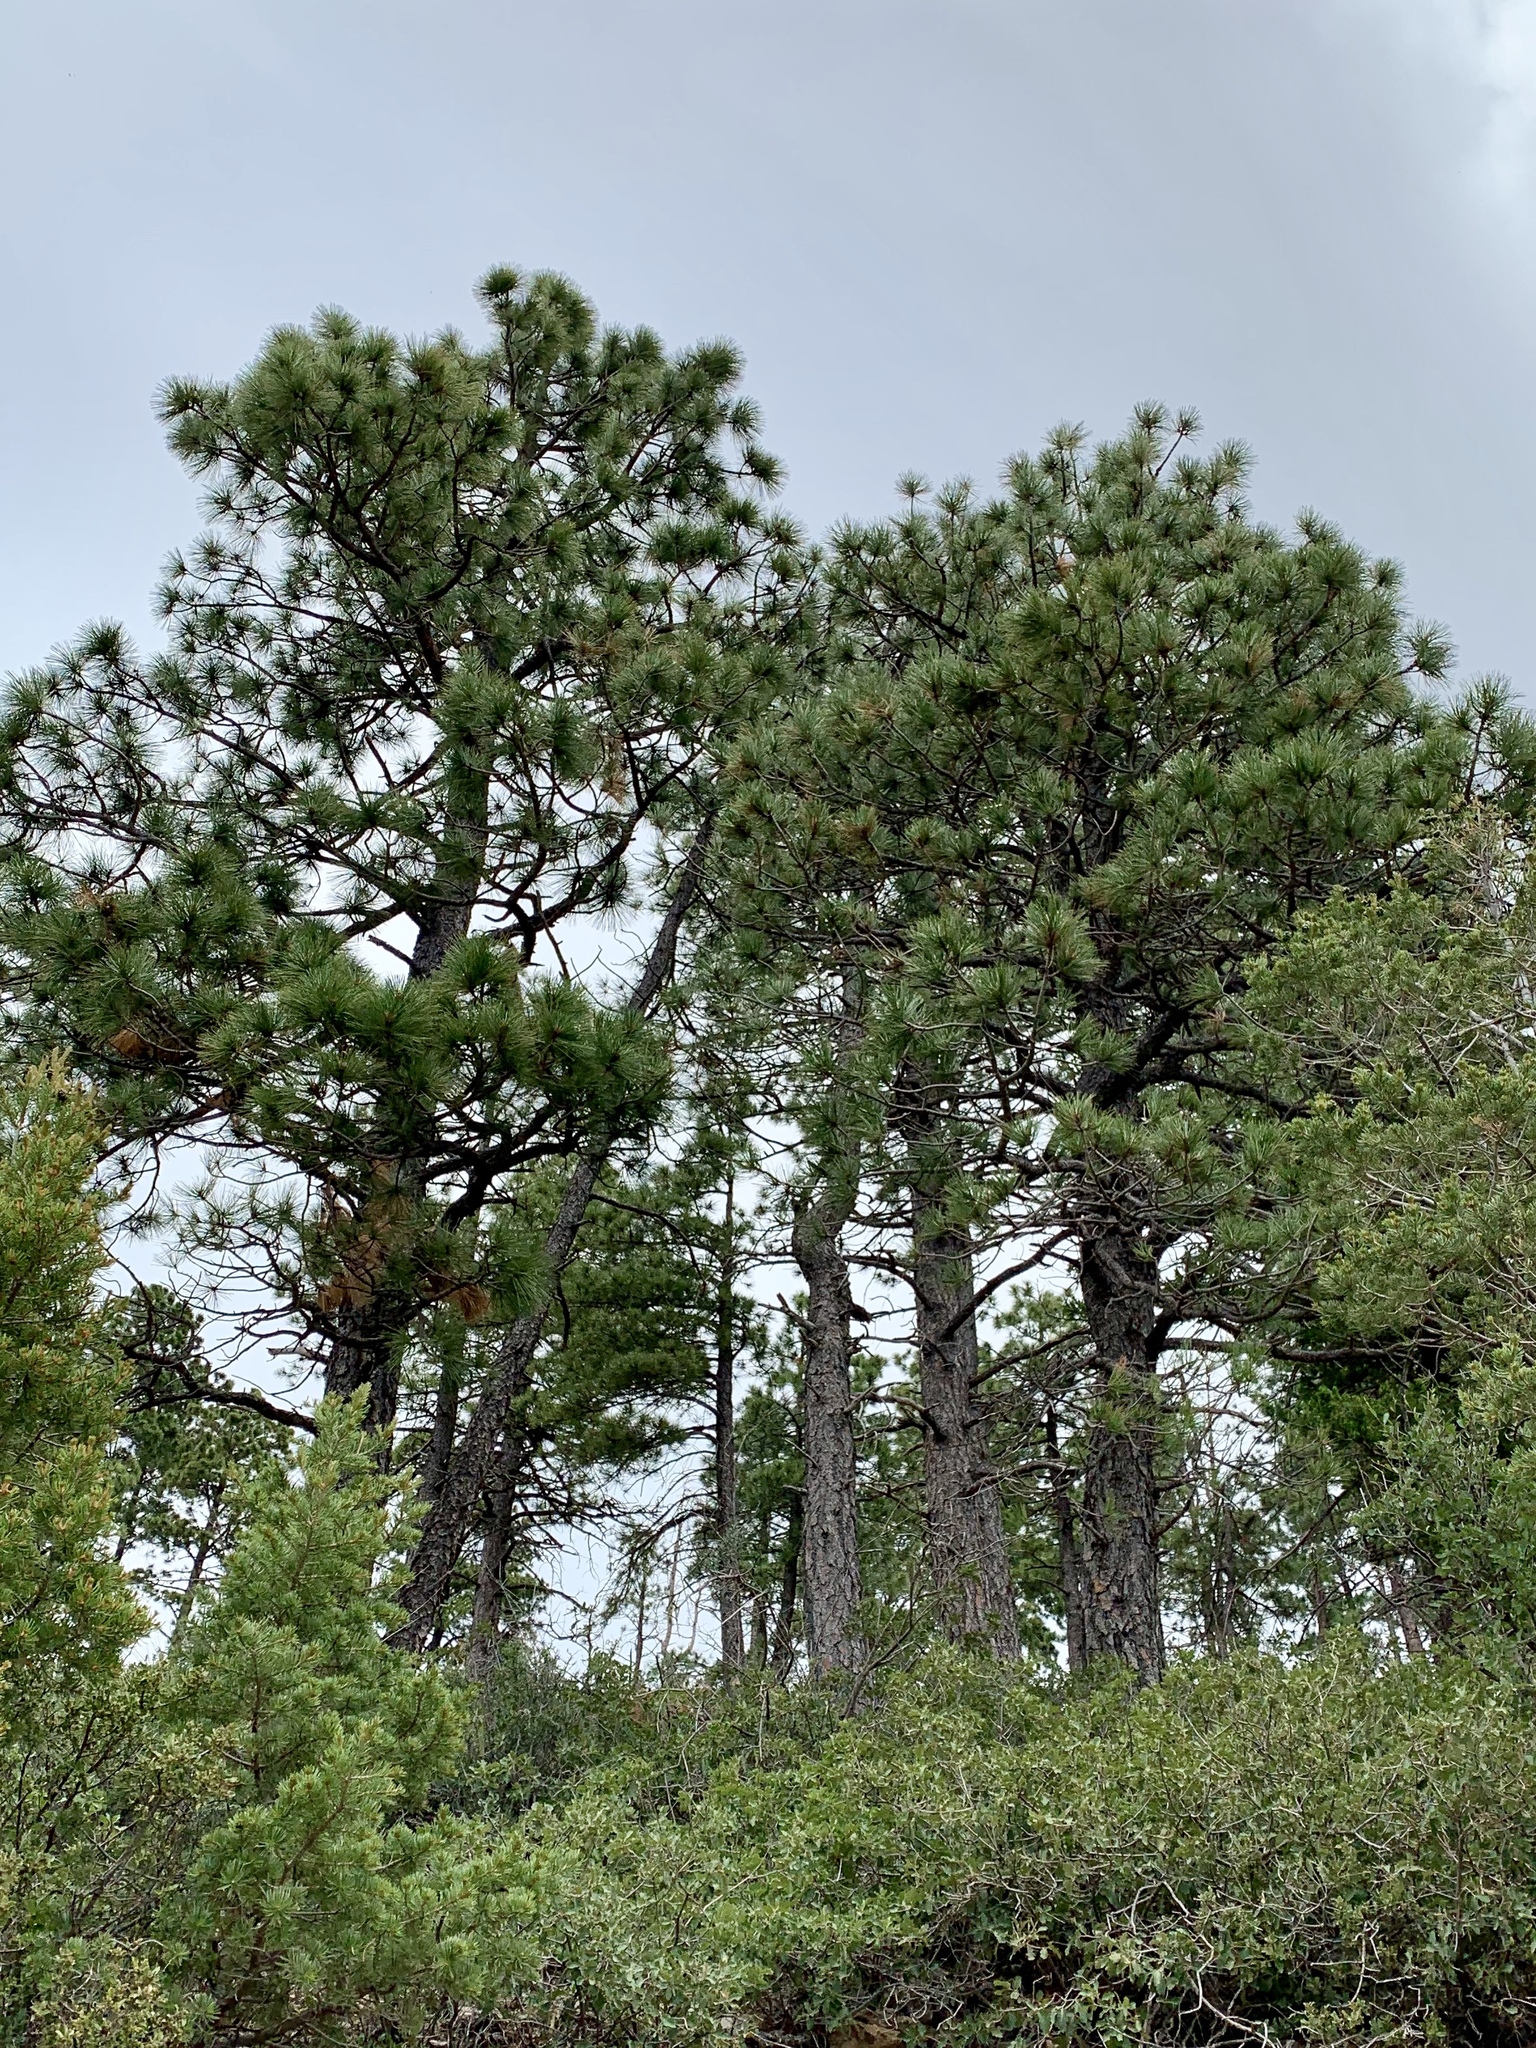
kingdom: Plantae
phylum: Tracheophyta
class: Pinopsida
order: Pinales
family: Pinaceae
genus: Pinus
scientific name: Pinus ponderosa
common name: Western yellow-pine
